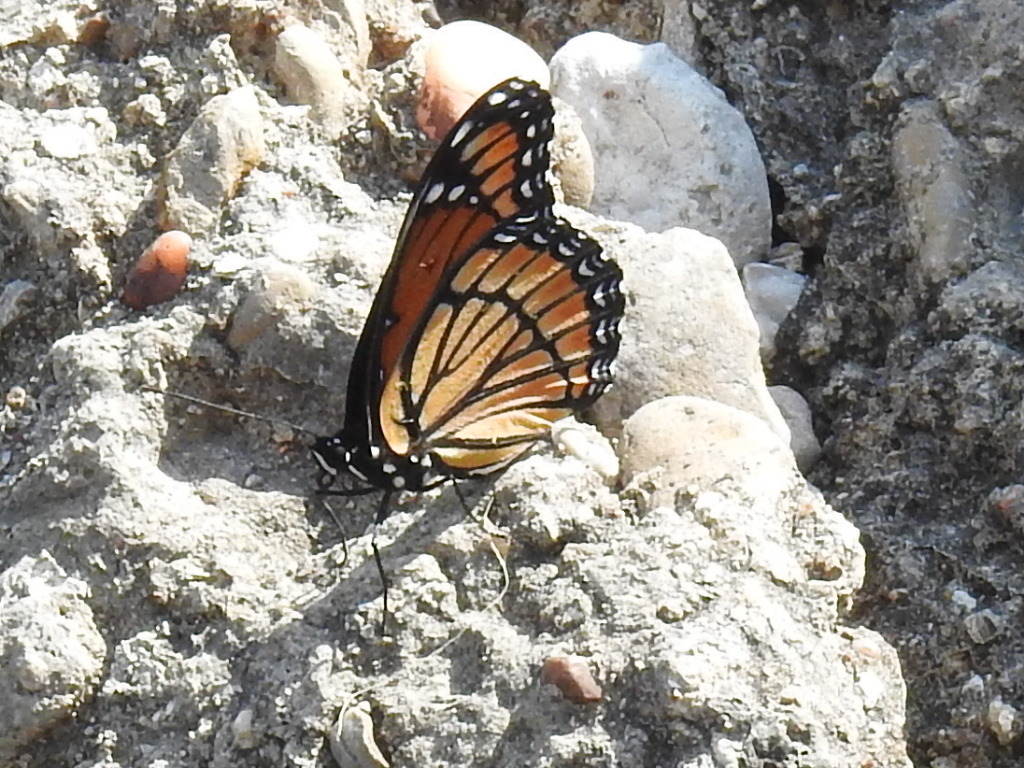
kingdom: Animalia
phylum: Arthropoda
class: Insecta
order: Lepidoptera
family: Nymphalidae
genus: Limenitis
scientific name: Limenitis archippus
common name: Viceroy
